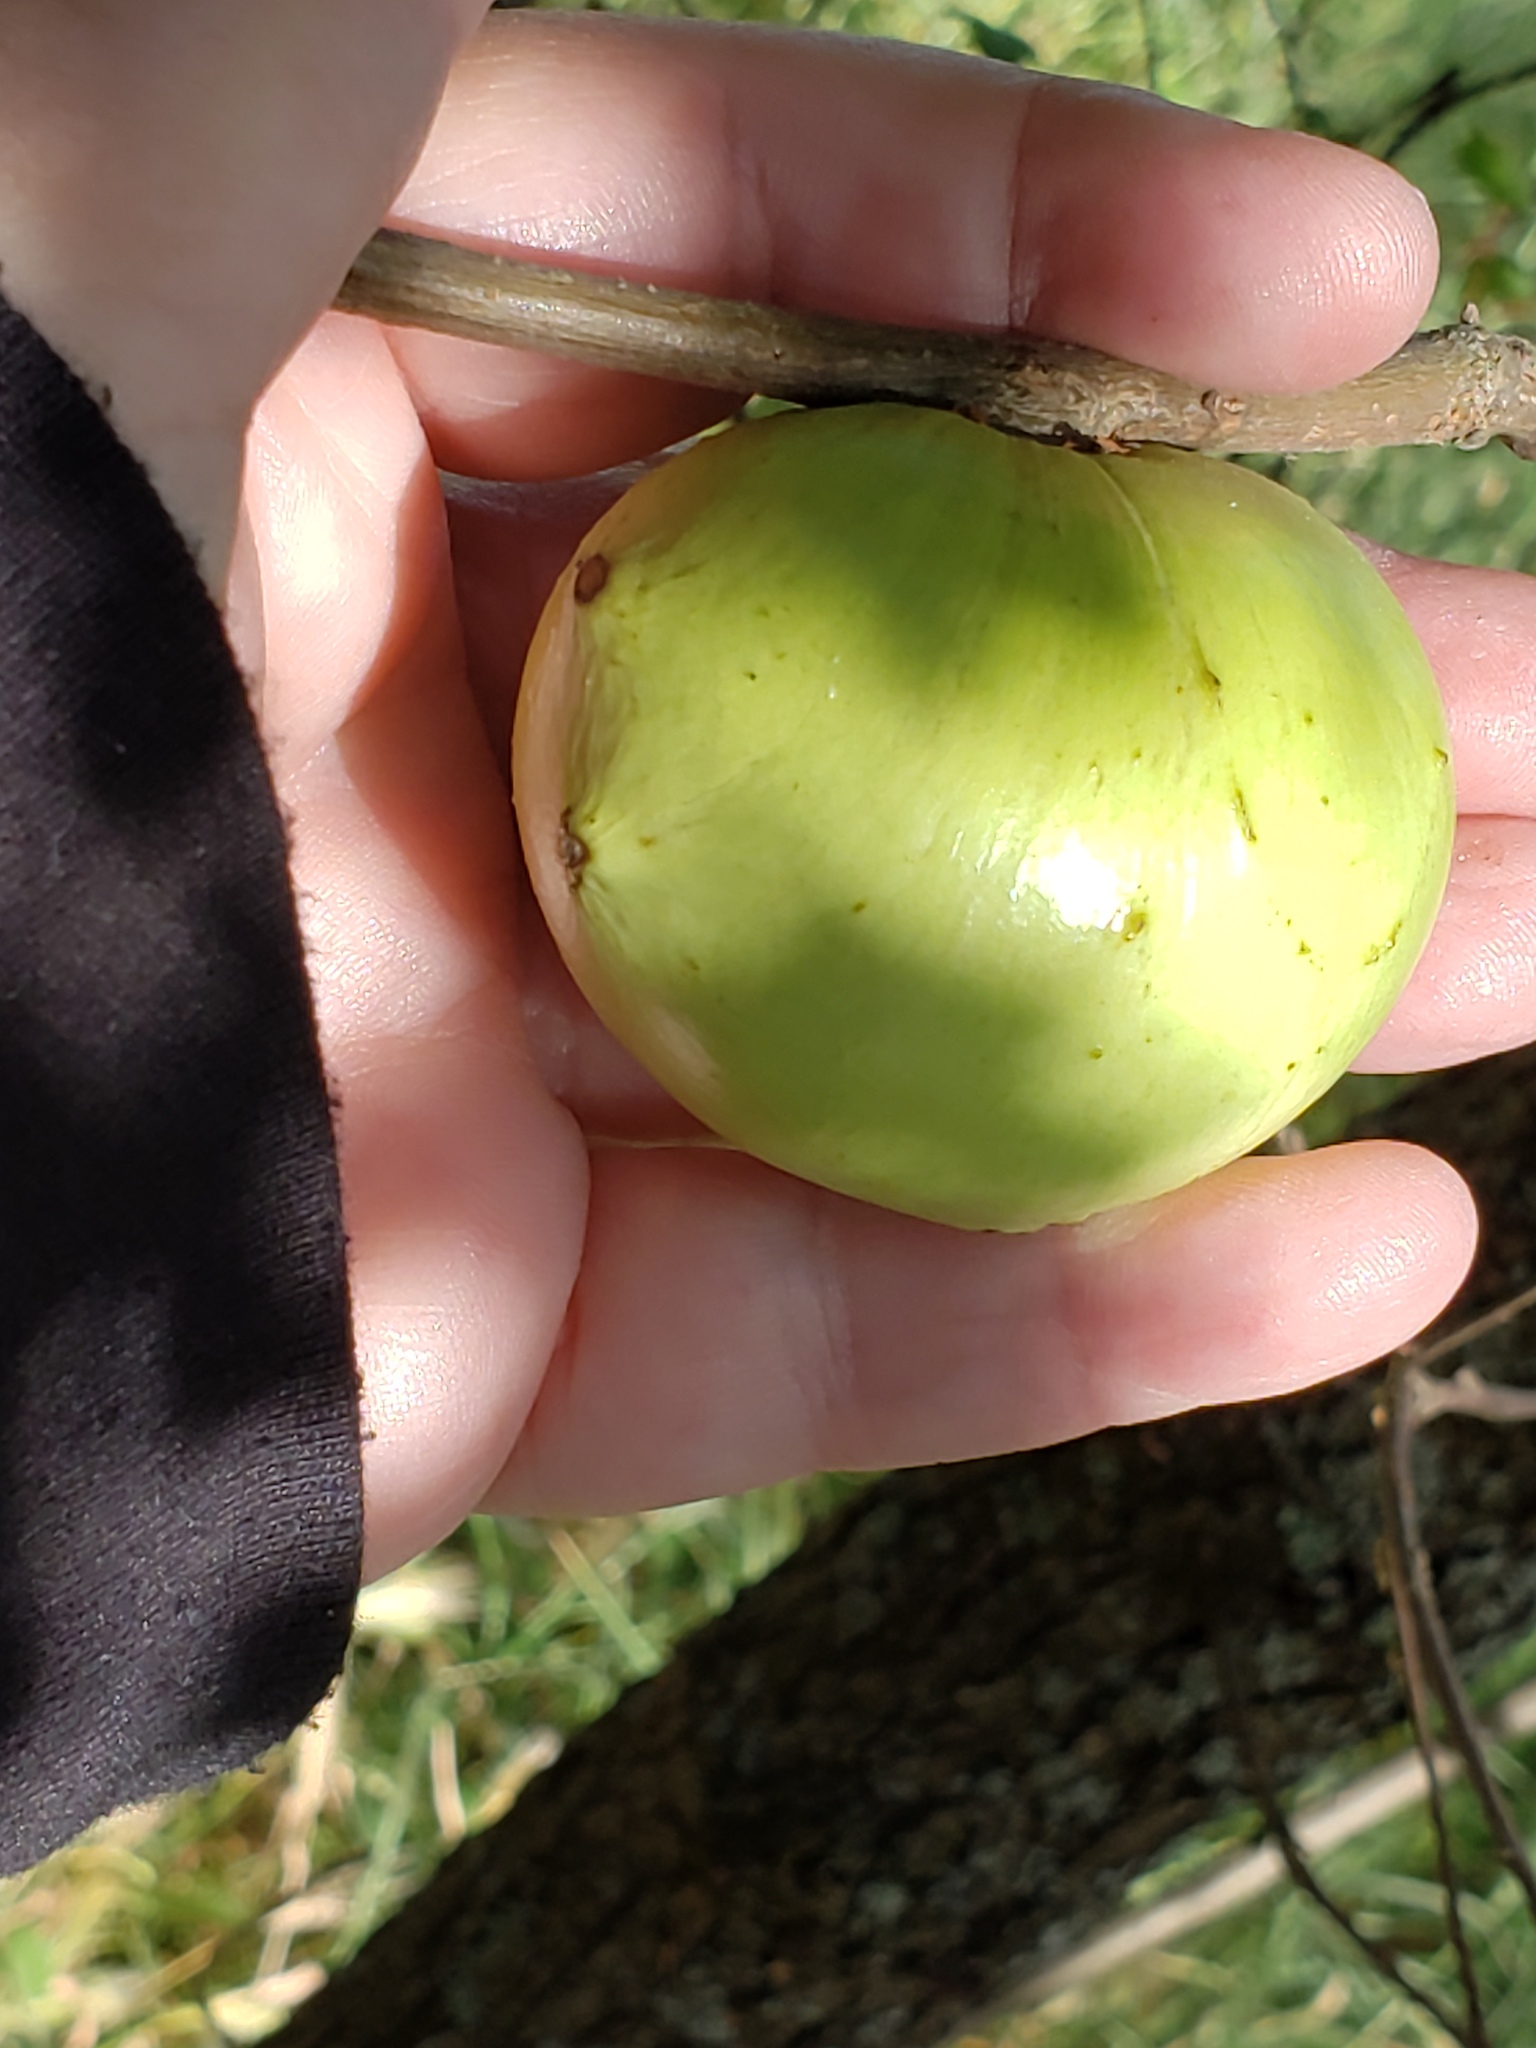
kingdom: Animalia
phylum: Arthropoda
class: Insecta
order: Hymenoptera
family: Cynipidae
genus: Andricus
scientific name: Andricus quercuscalifornicus
